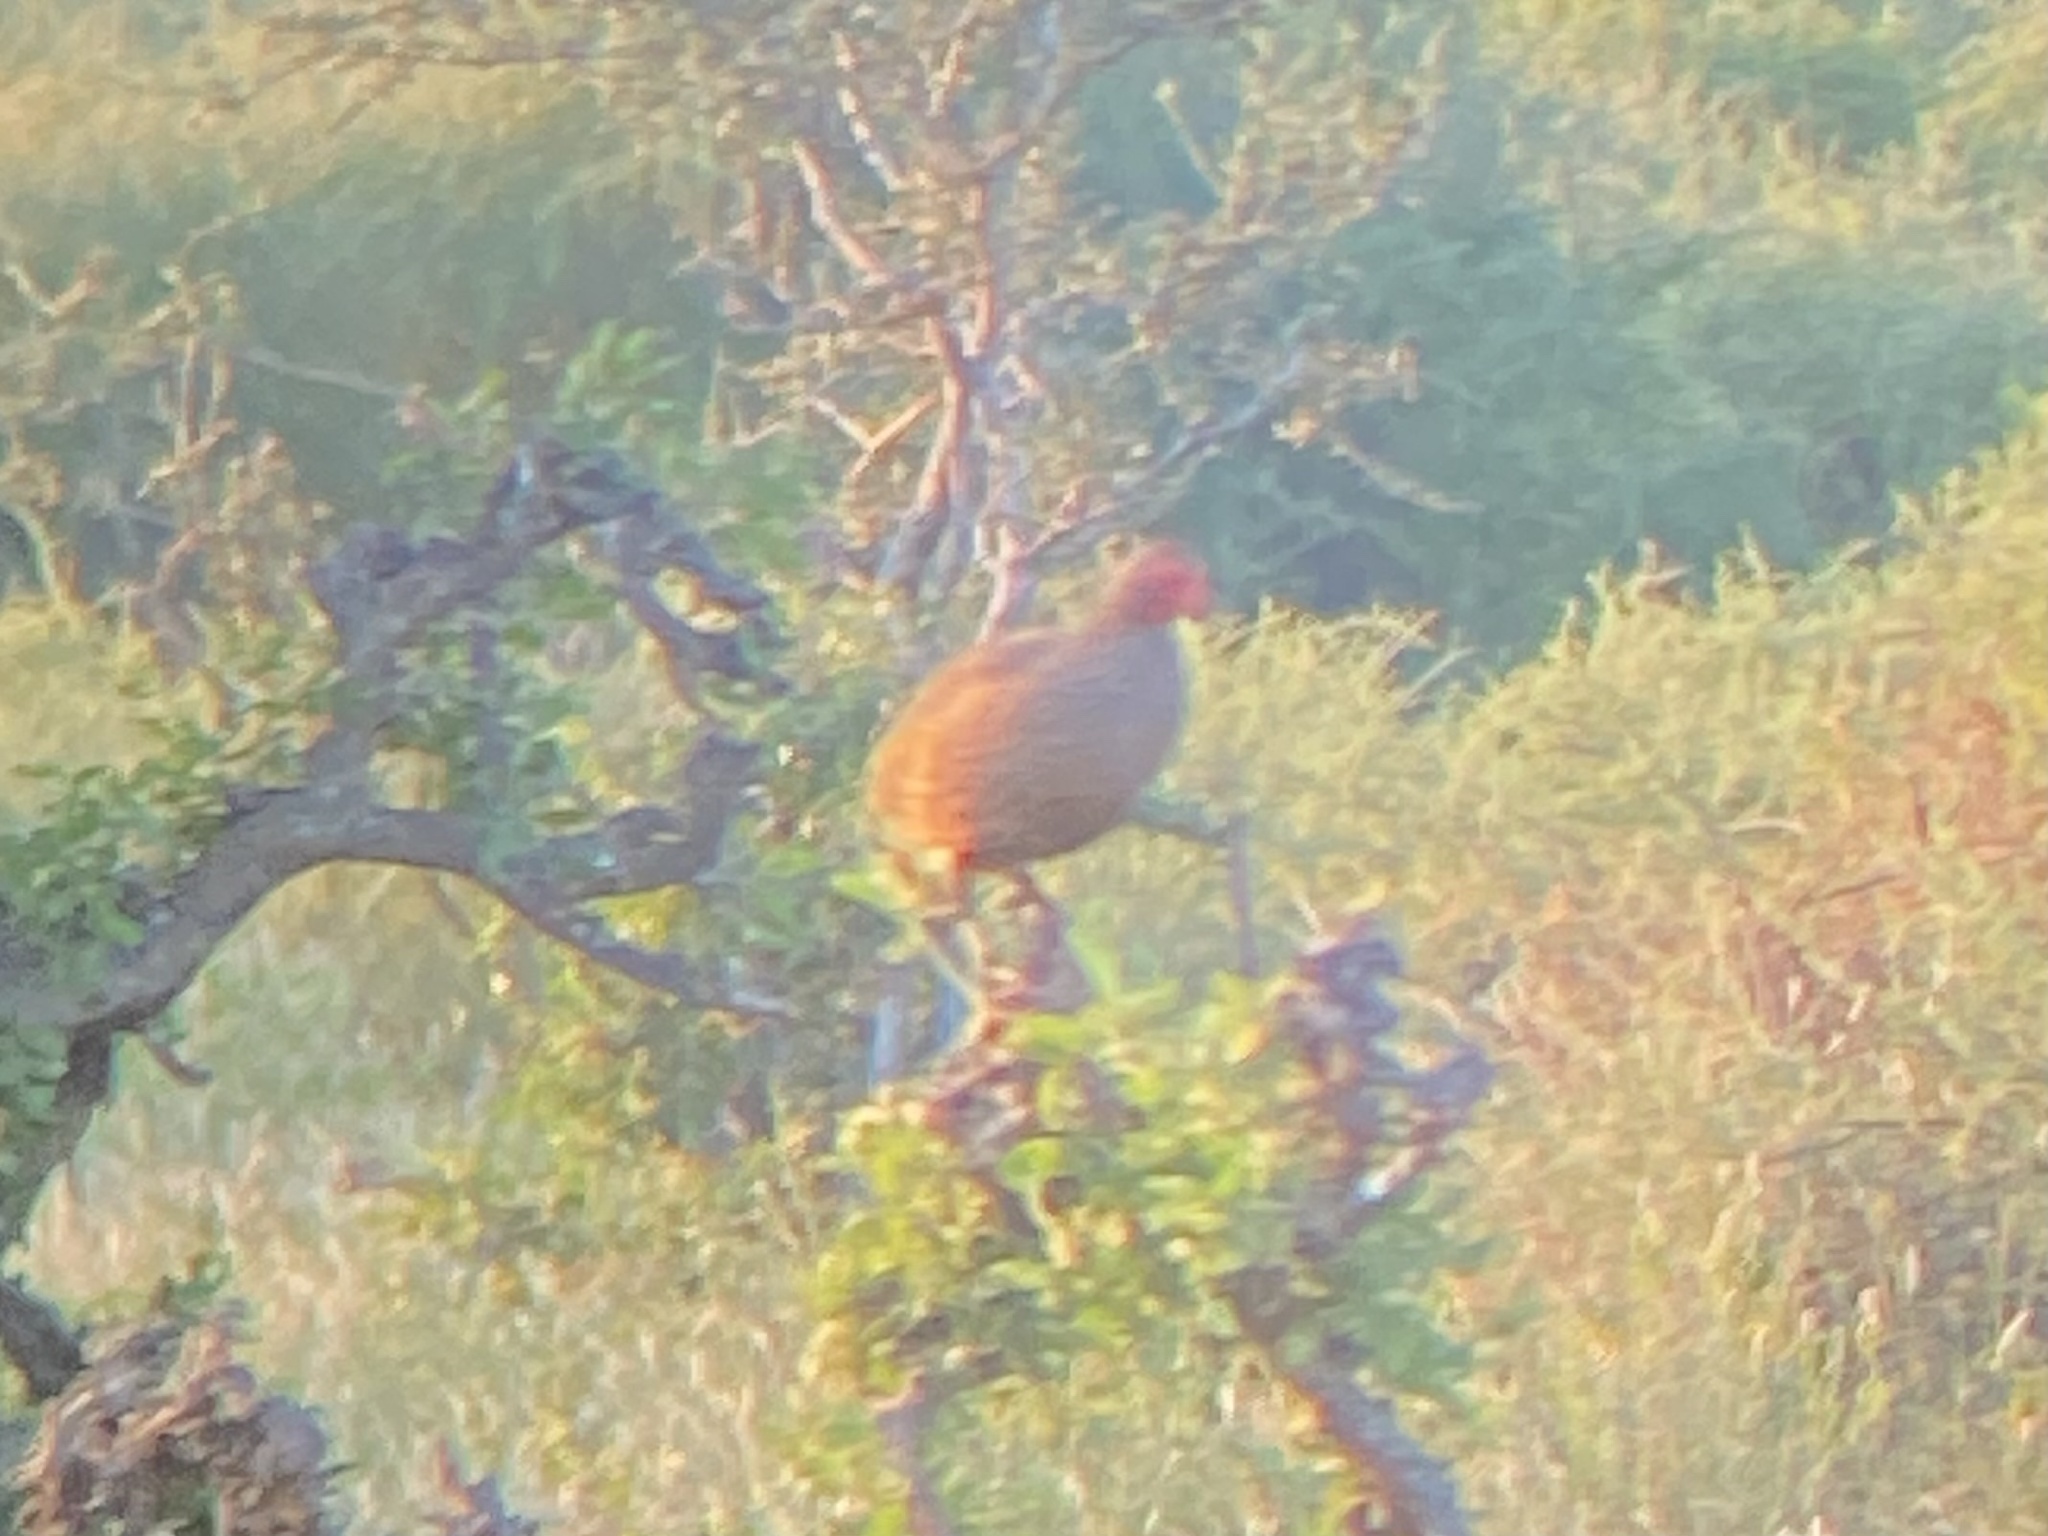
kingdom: Animalia
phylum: Chordata
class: Aves
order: Galliformes
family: Phasianidae
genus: Pternistis
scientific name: Pternistis swainsonii
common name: Swainson's spurfowl
